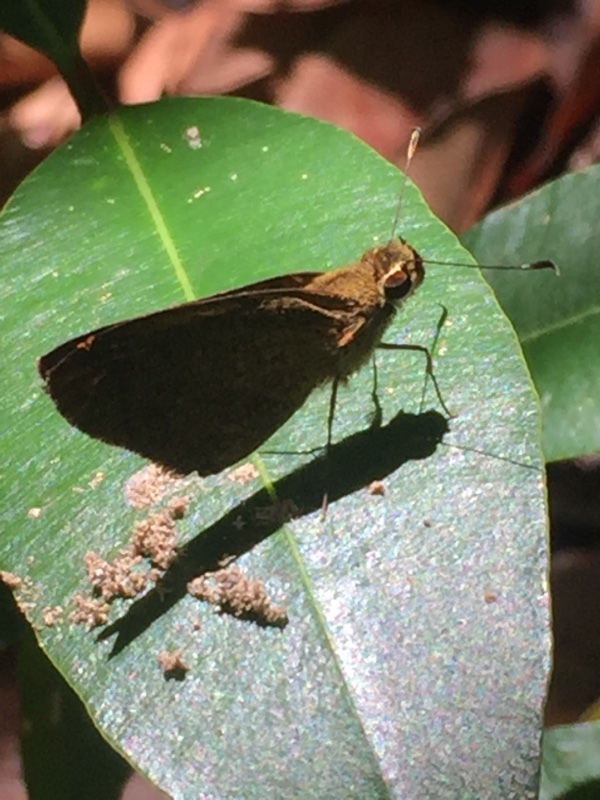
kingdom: Animalia
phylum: Arthropoda
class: Insecta
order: Lepidoptera
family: Hesperiidae
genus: Synapte
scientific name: Synapte malitiosa
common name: Caribbean faceted-skipper
